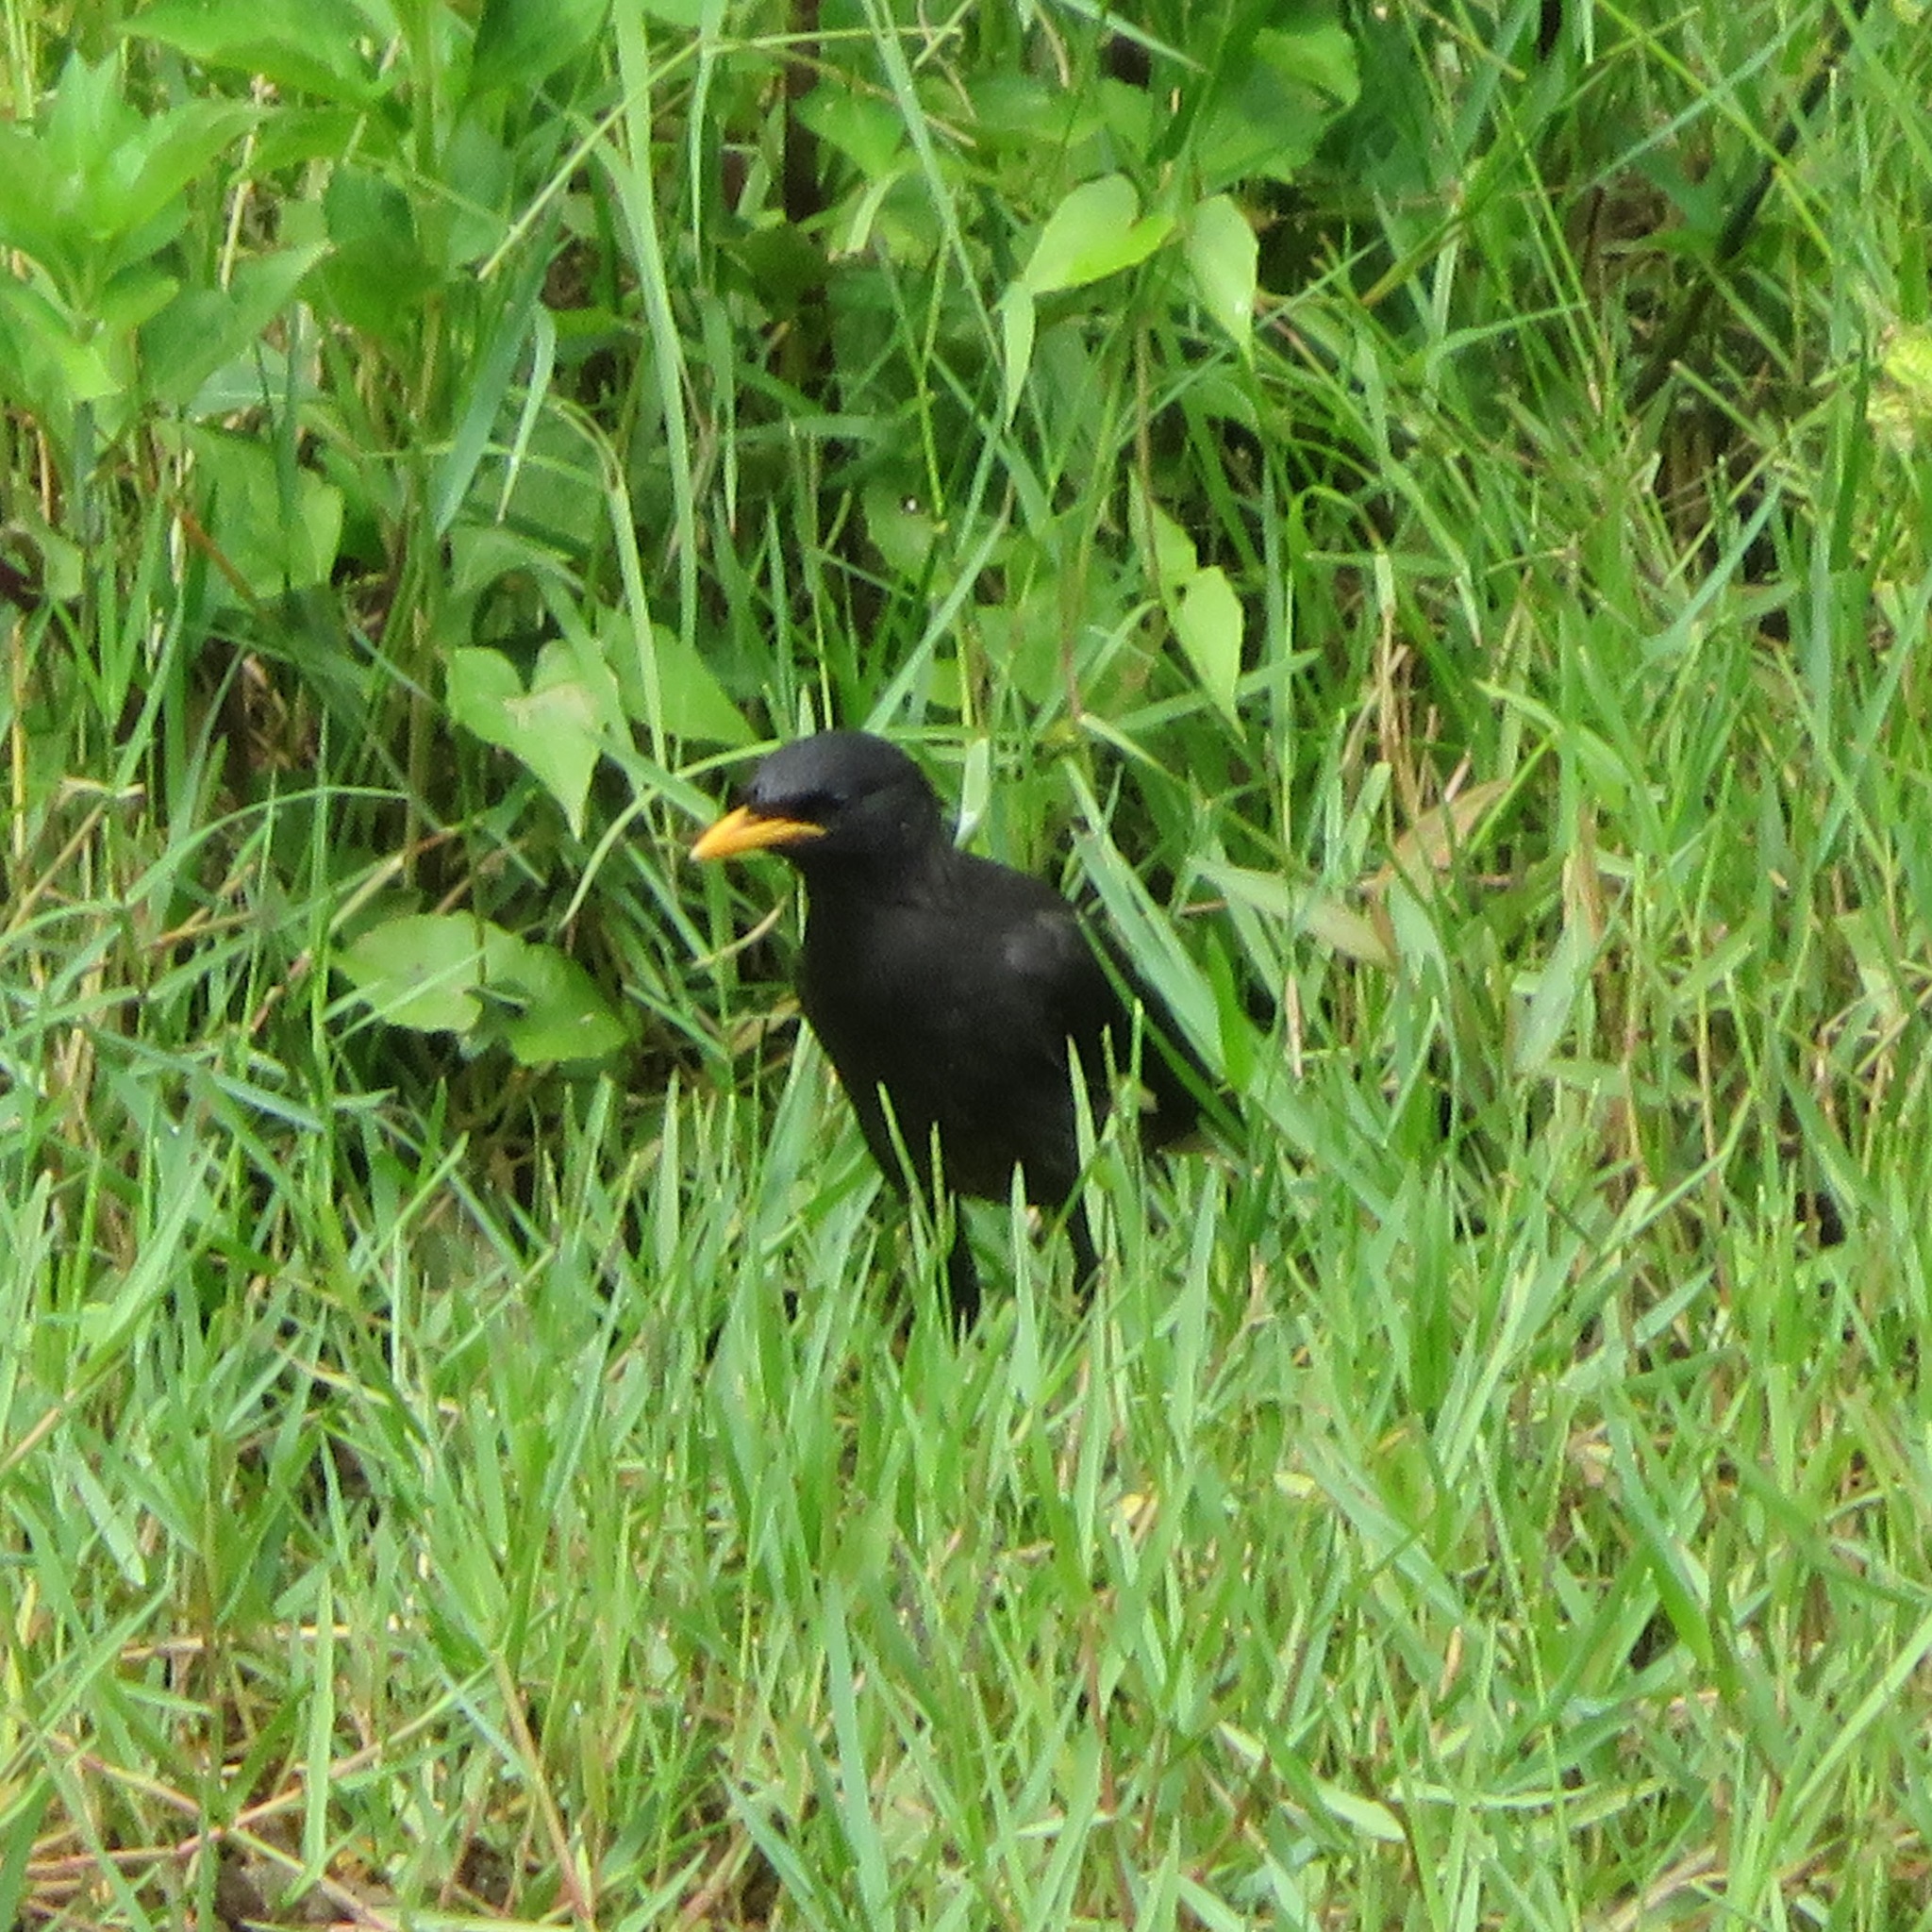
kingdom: Animalia
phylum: Chordata
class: Aves
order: Passeriformes
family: Sturnidae
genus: Acridotheres
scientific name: Acridotheres grandis
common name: Great myna
